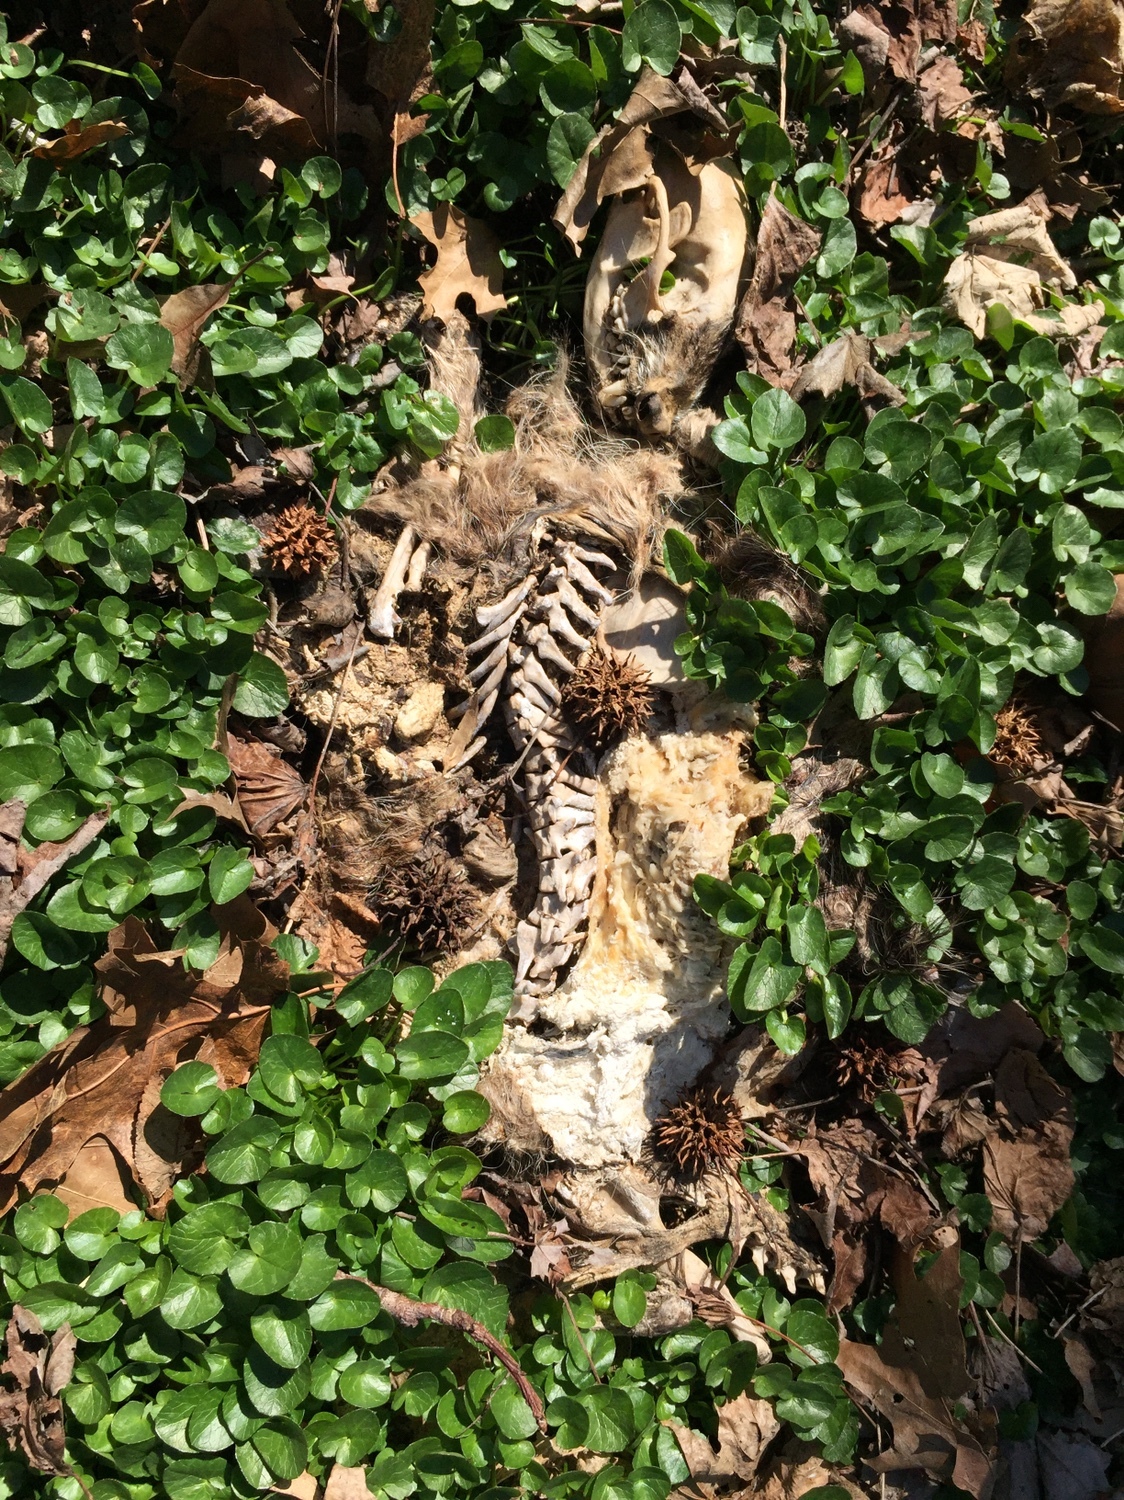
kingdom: Animalia
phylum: Chordata
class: Mammalia
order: Didelphimorphia
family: Didelphidae
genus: Didelphis
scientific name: Didelphis virginiana
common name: Virginia opossum
